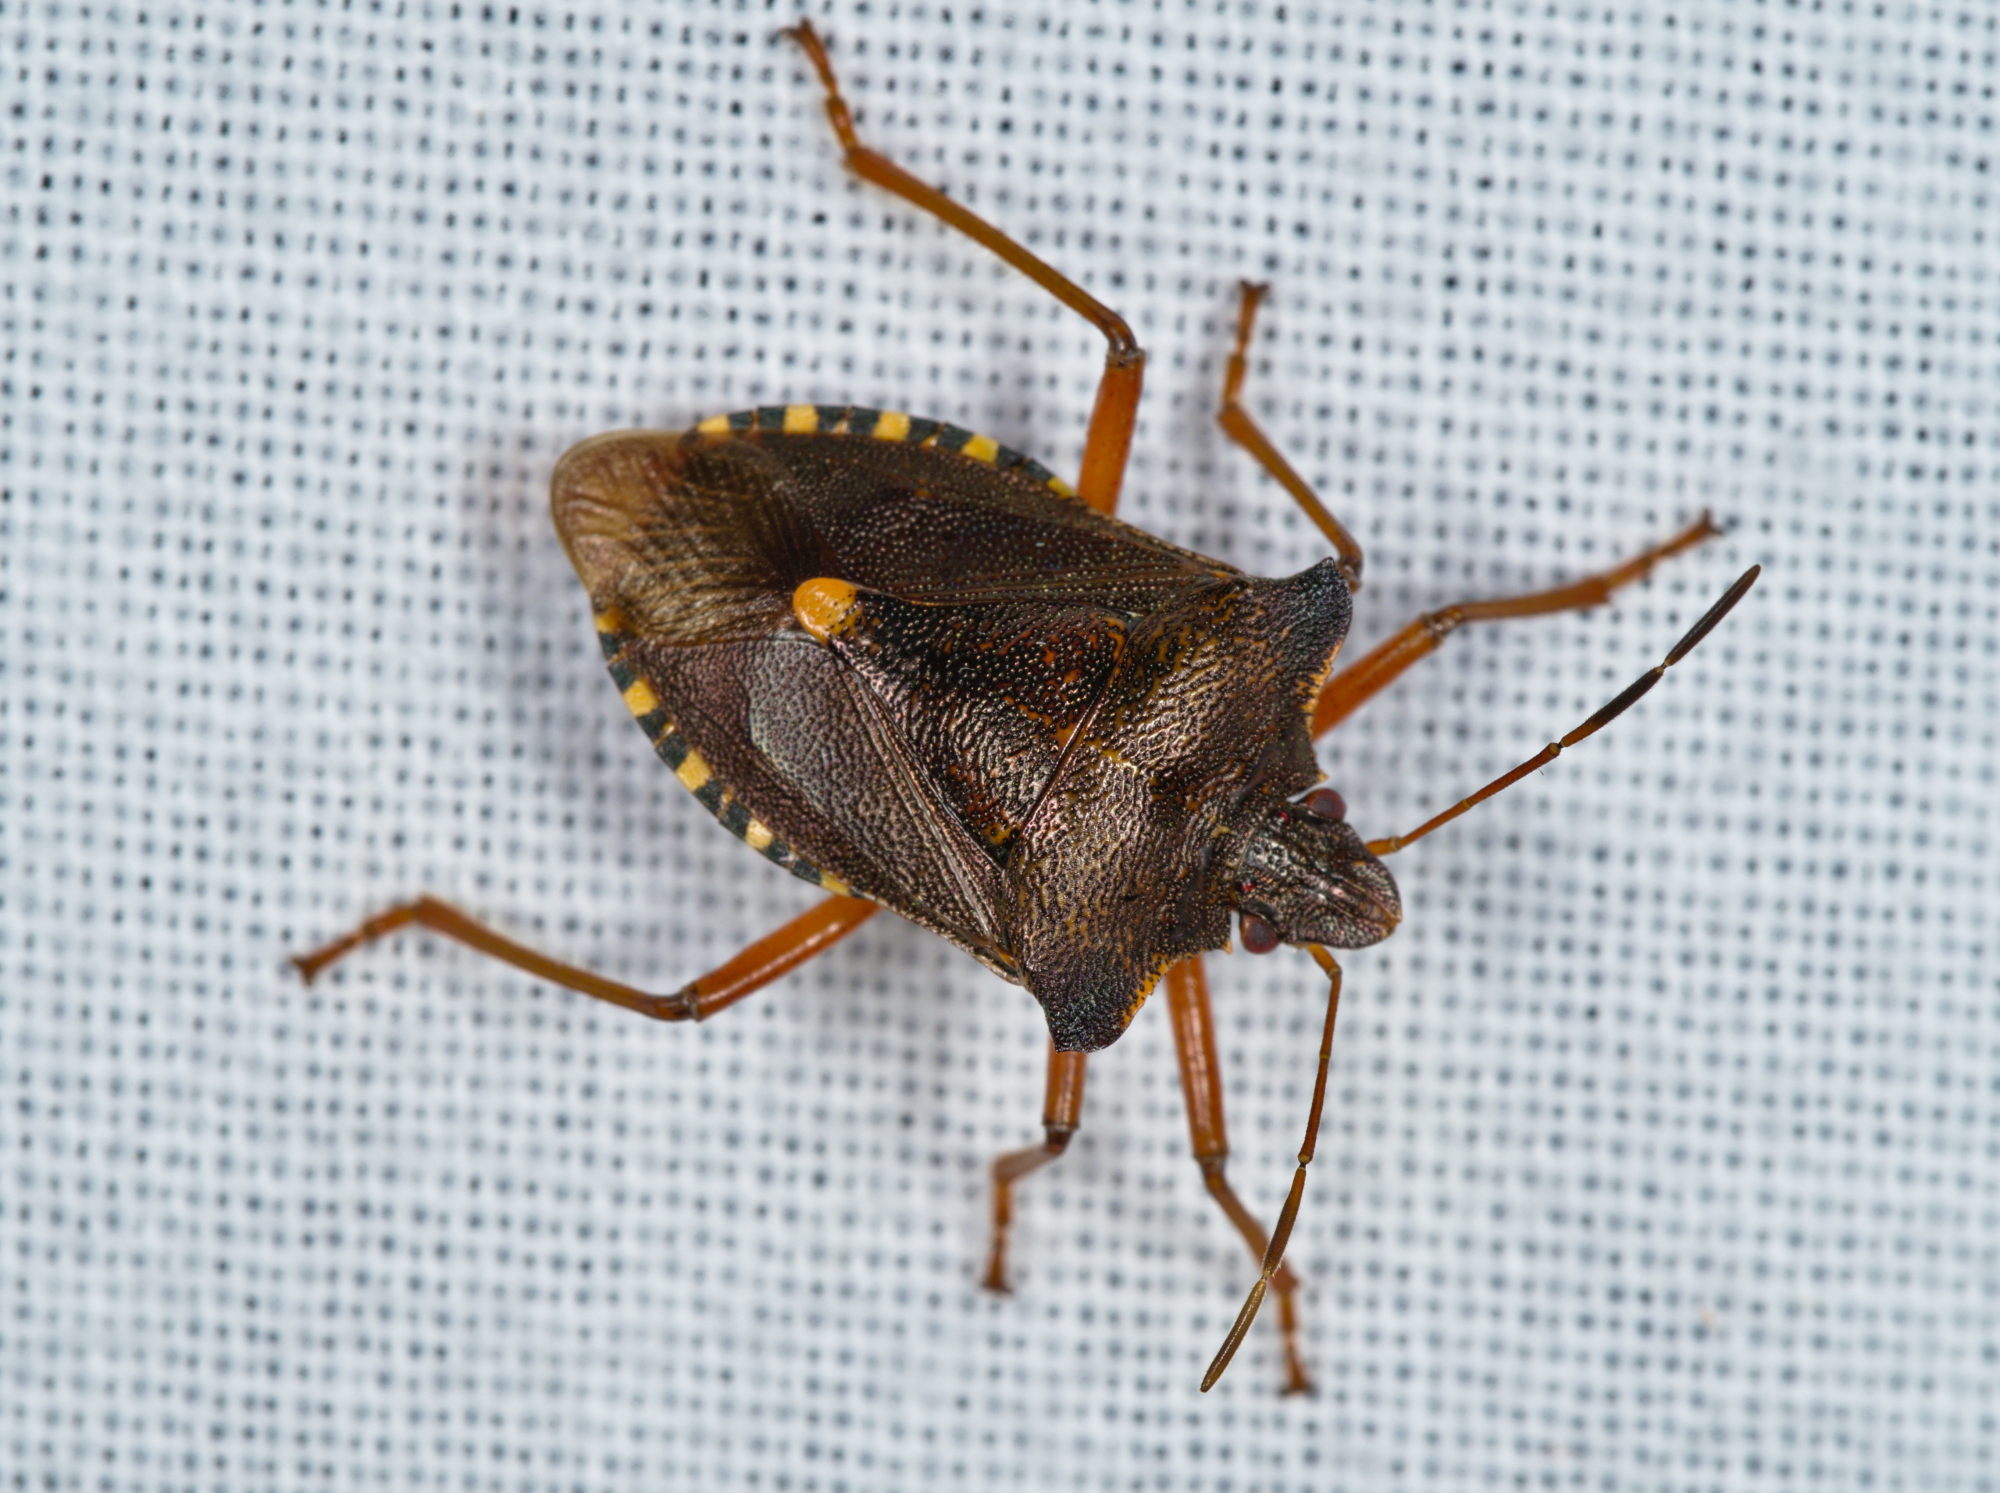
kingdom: Animalia
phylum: Arthropoda
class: Insecta
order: Hemiptera
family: Pentatomidae
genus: Pentatoma
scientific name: Pentatoma rufipes
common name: Forest bug
